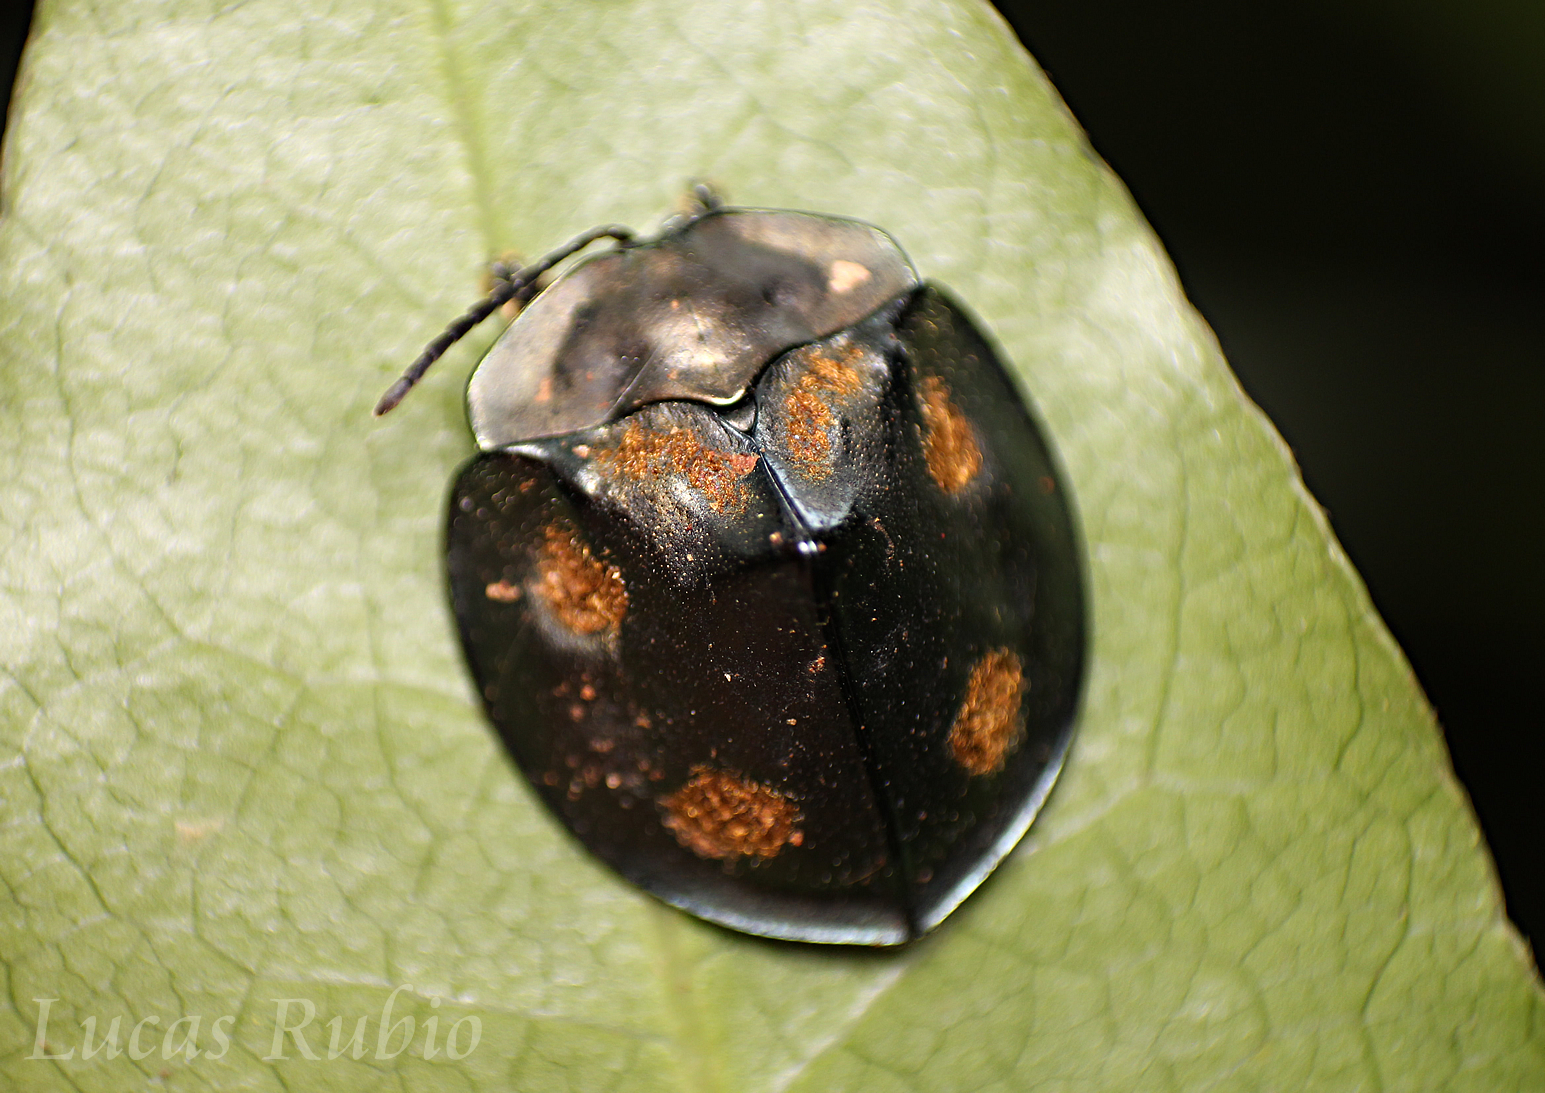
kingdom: Animalia
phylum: Arthropoda
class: Insecta
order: Coleoptera
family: Chrysomelidae
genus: Stolas
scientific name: Stolas chalybaea
